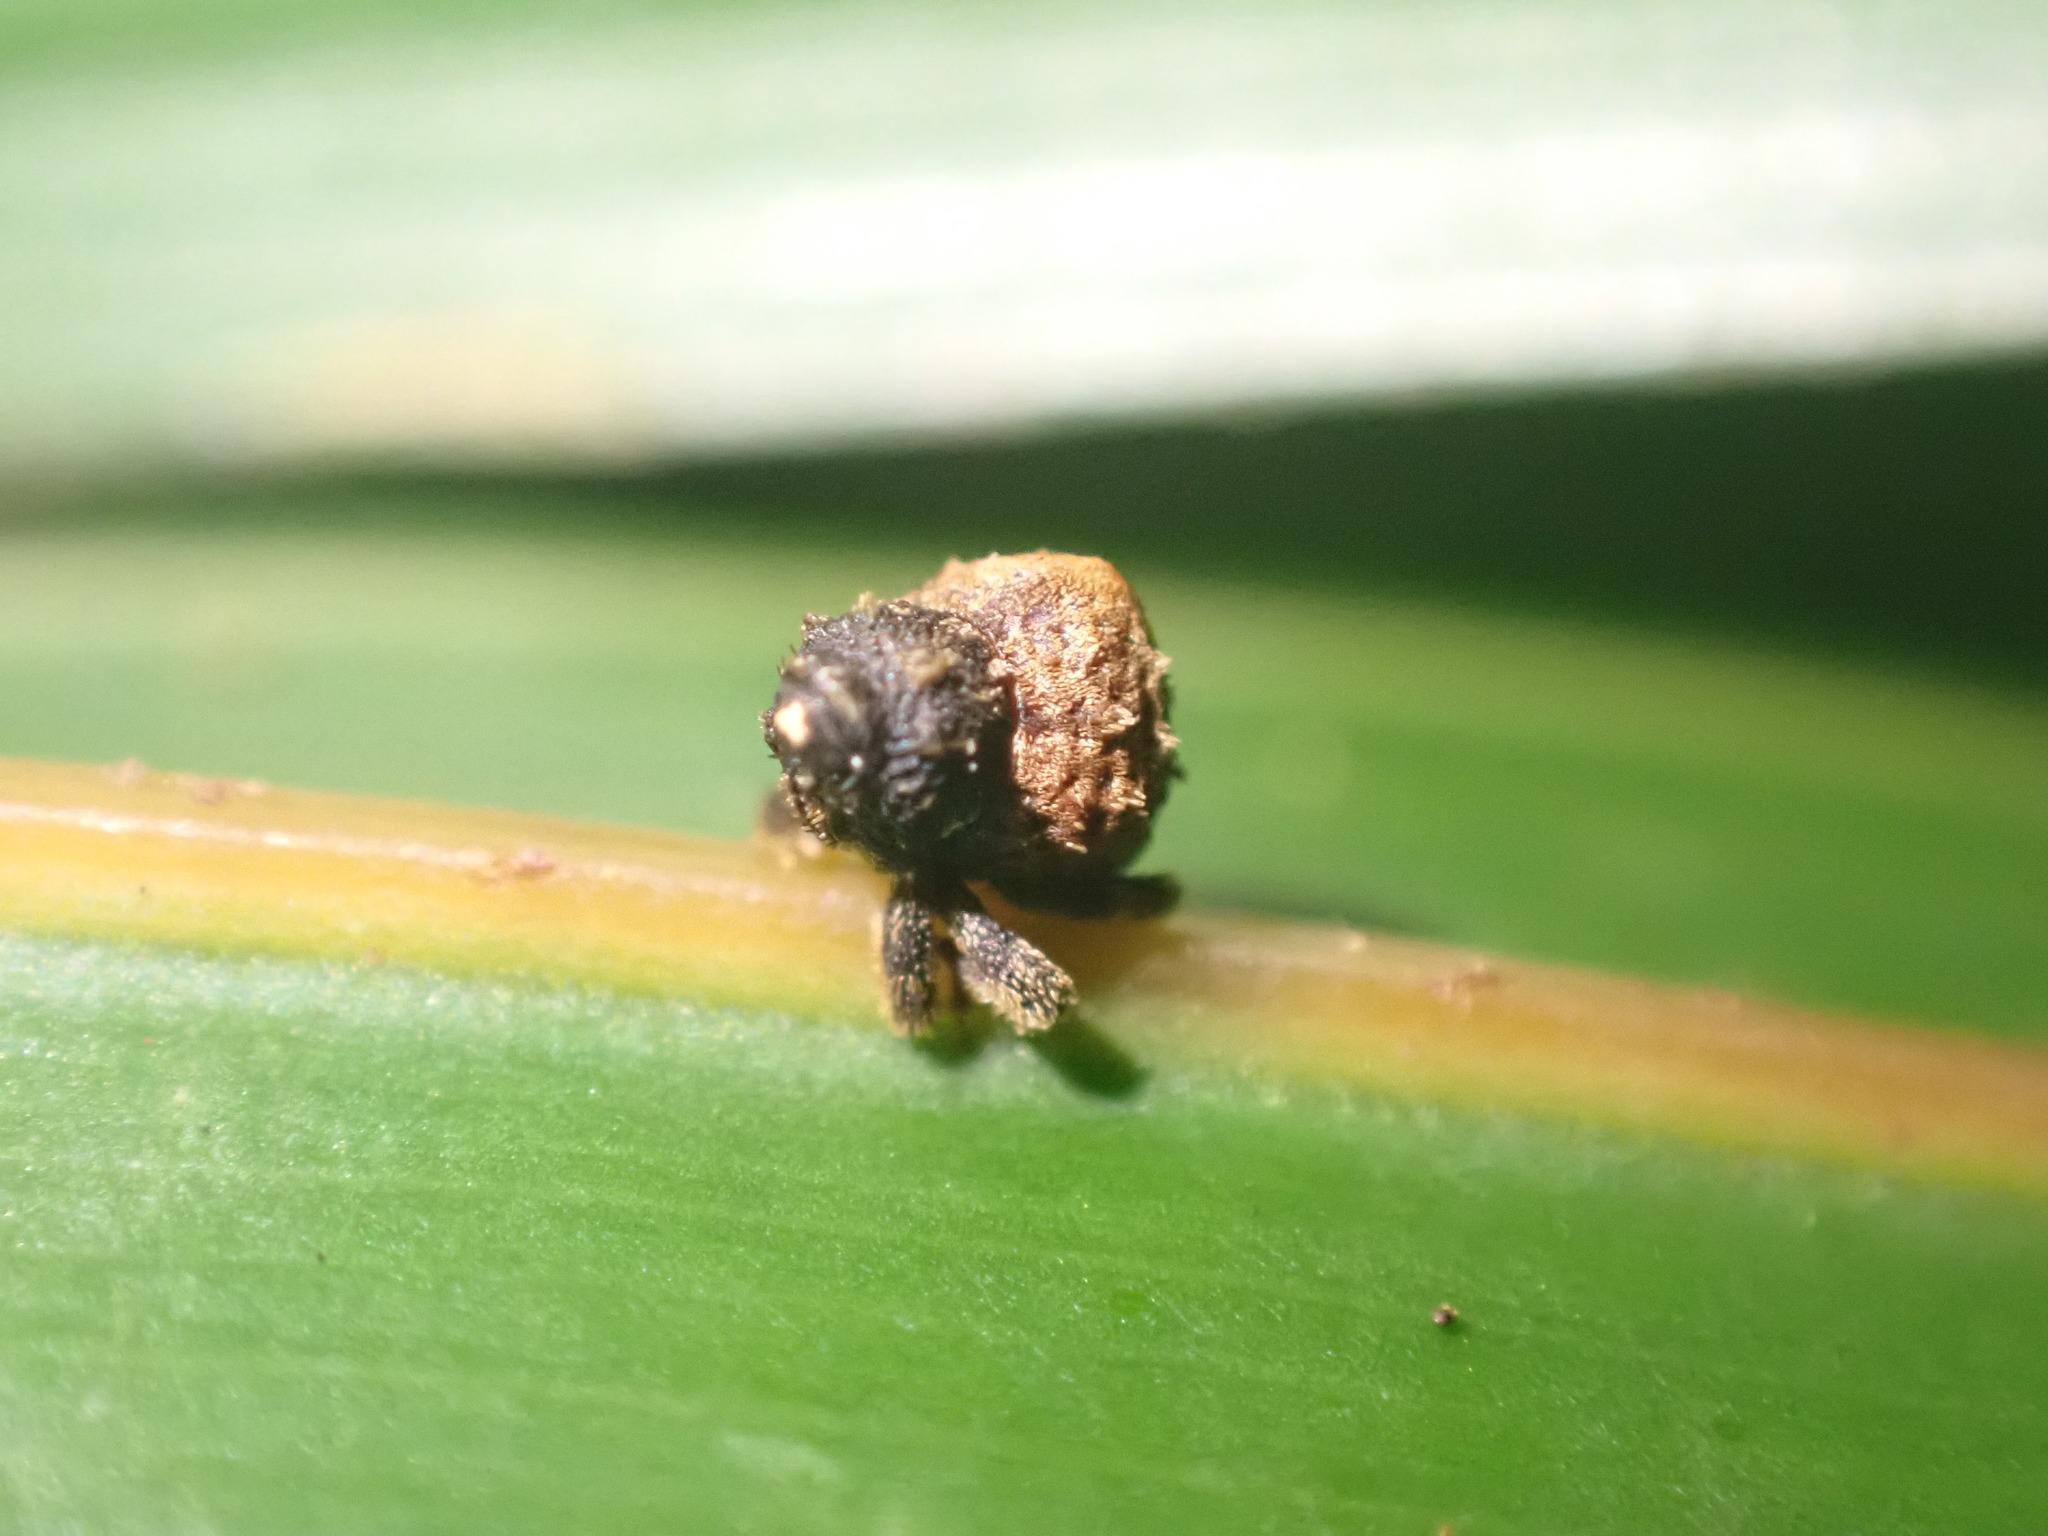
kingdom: Animalia
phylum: Arthropoda
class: Insecta
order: Coleoptera
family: Curculionidae
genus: Crooktacalles
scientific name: Crooktacalles certus
